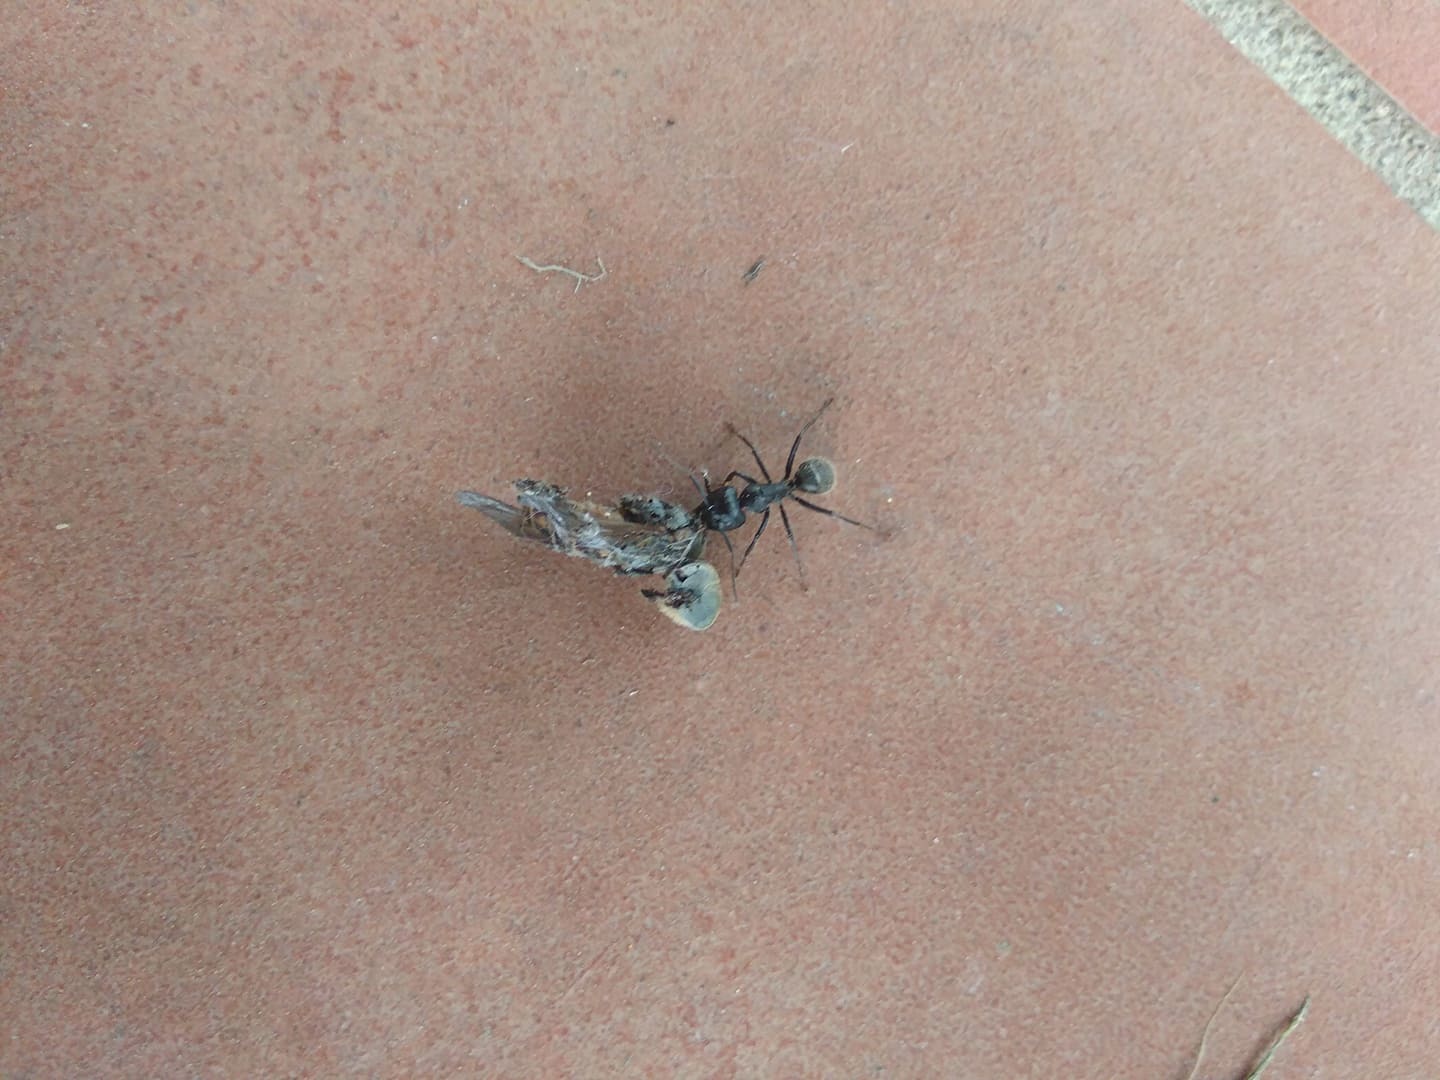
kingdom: Animalia
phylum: Arthropoda
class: Insecta
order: Hymenoptera
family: Formicidae
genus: Camponotus
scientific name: Camponotus vagus
